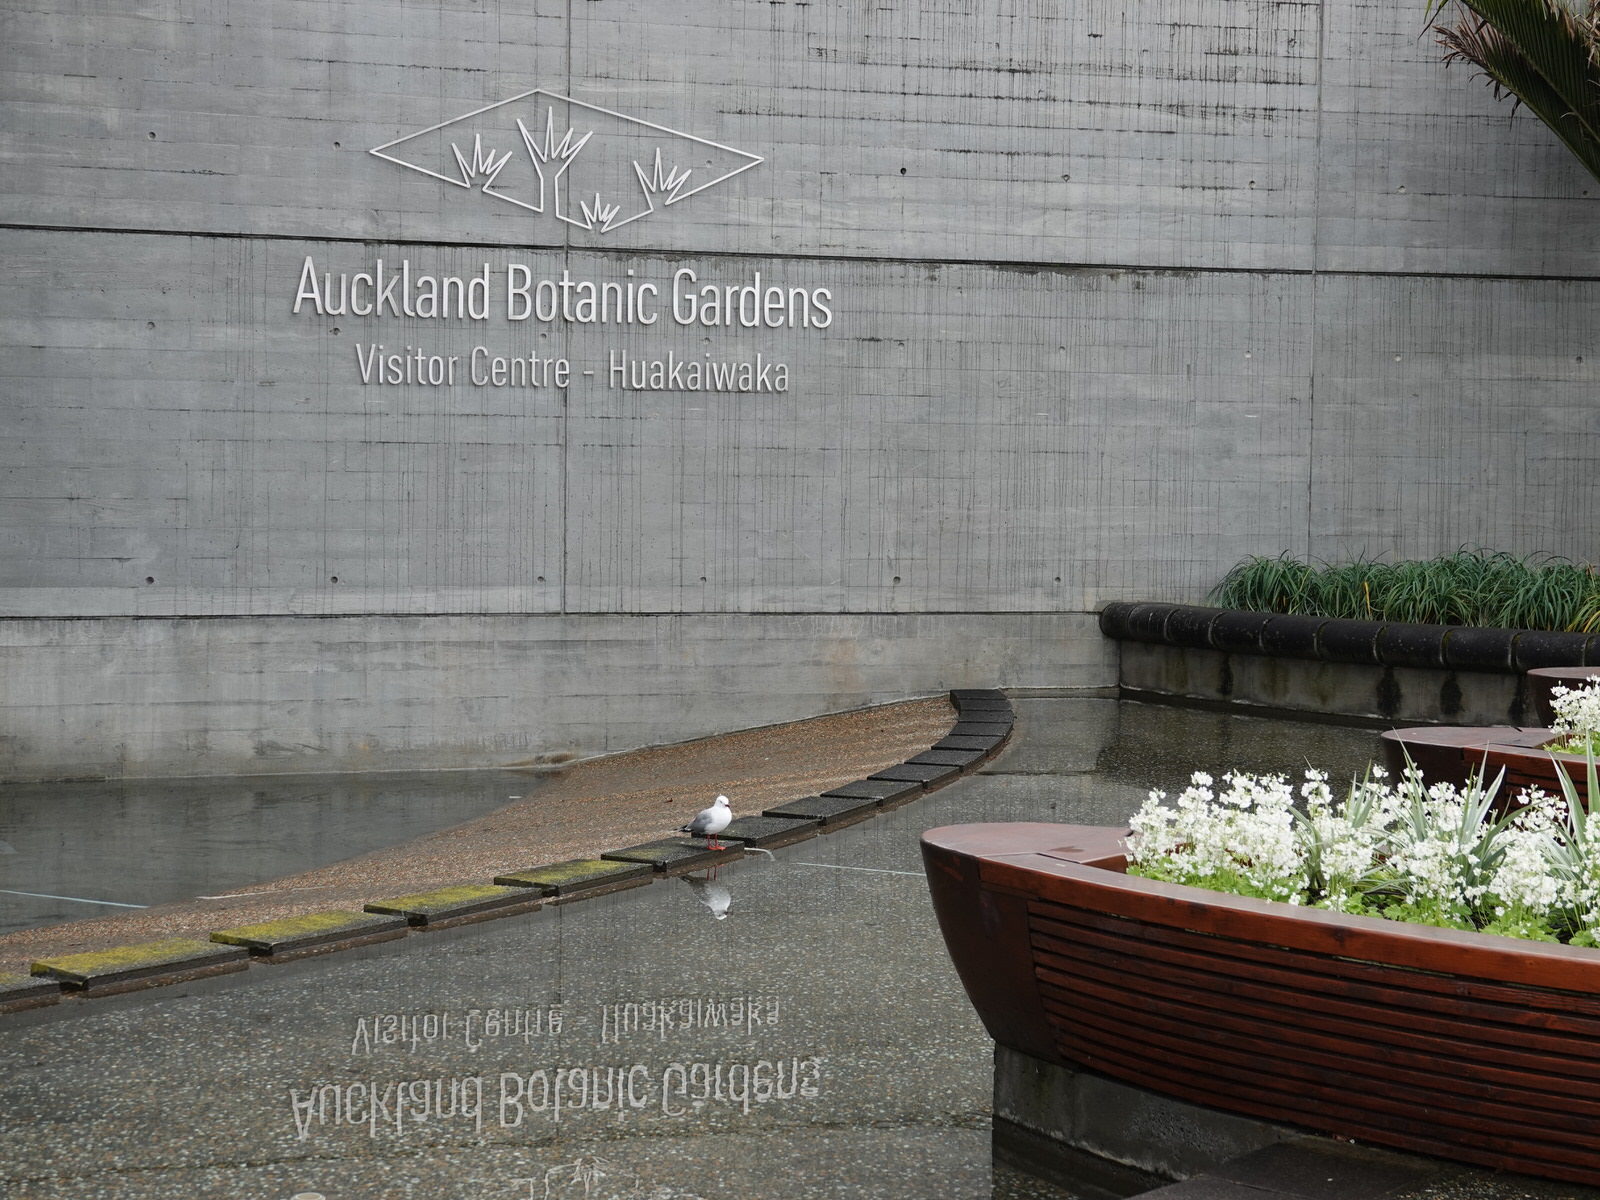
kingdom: Animalia
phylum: Chordata
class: Aves
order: Charadriiformes
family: Laridae
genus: Chroicocephalus
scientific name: Chroicocephalus novaehollandiae
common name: Silver gull
